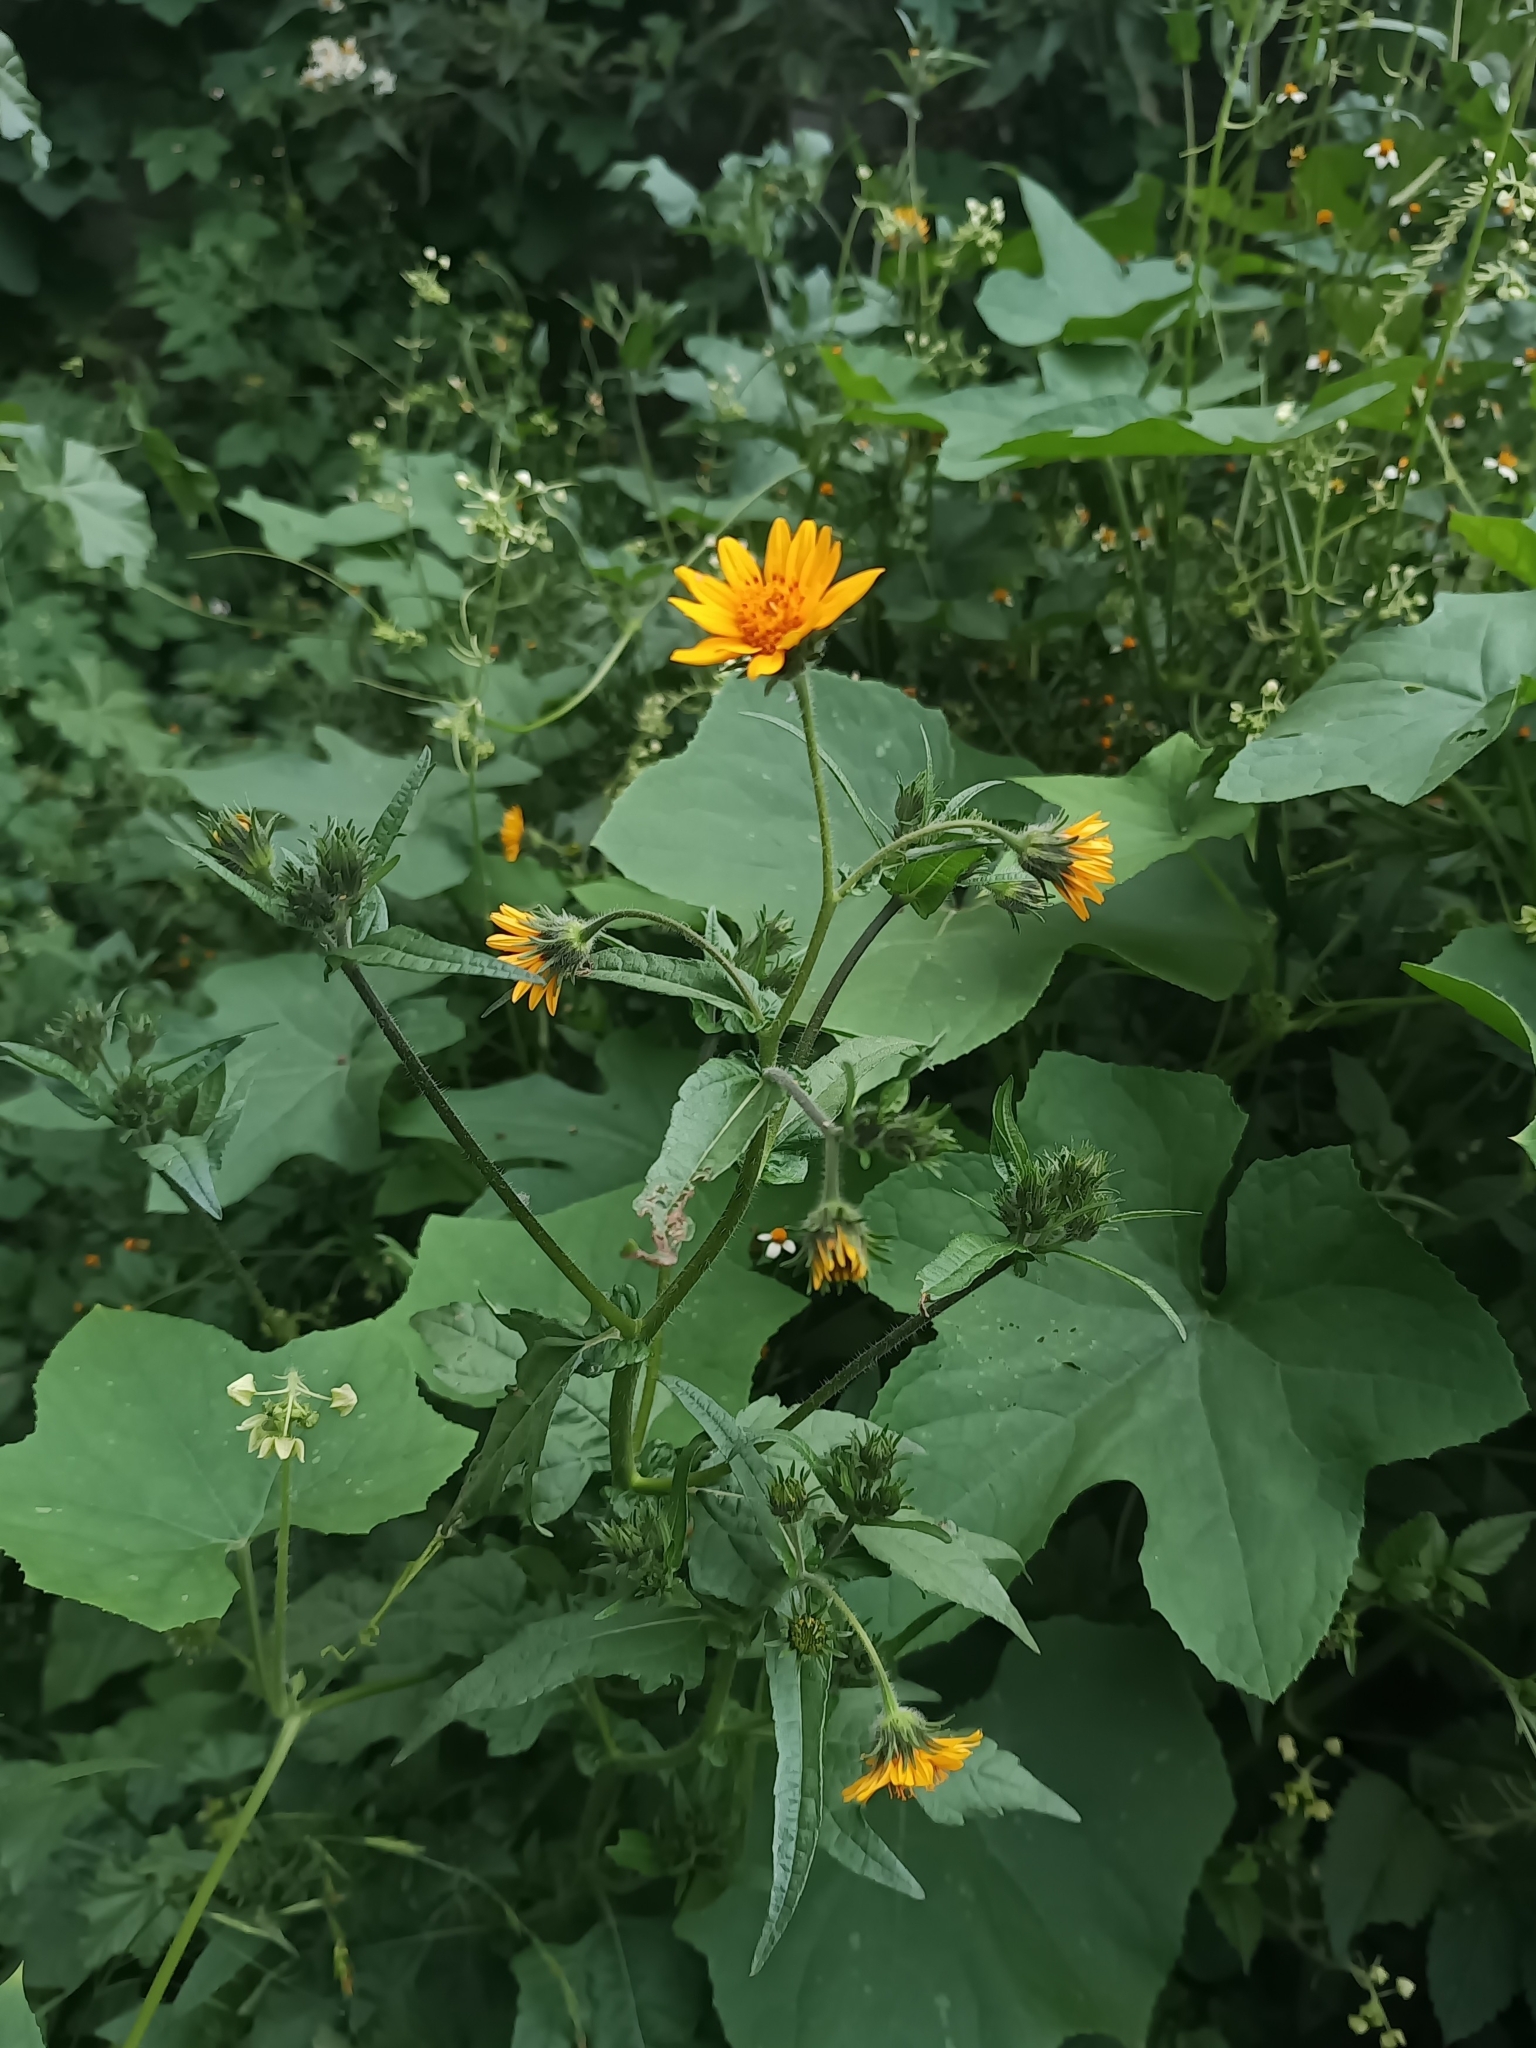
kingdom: Plantae
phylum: Tracheophyta
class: Magnoliopsida
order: Asterales
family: Asteraceae
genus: Simsia
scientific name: Simsia amplexicaulis
